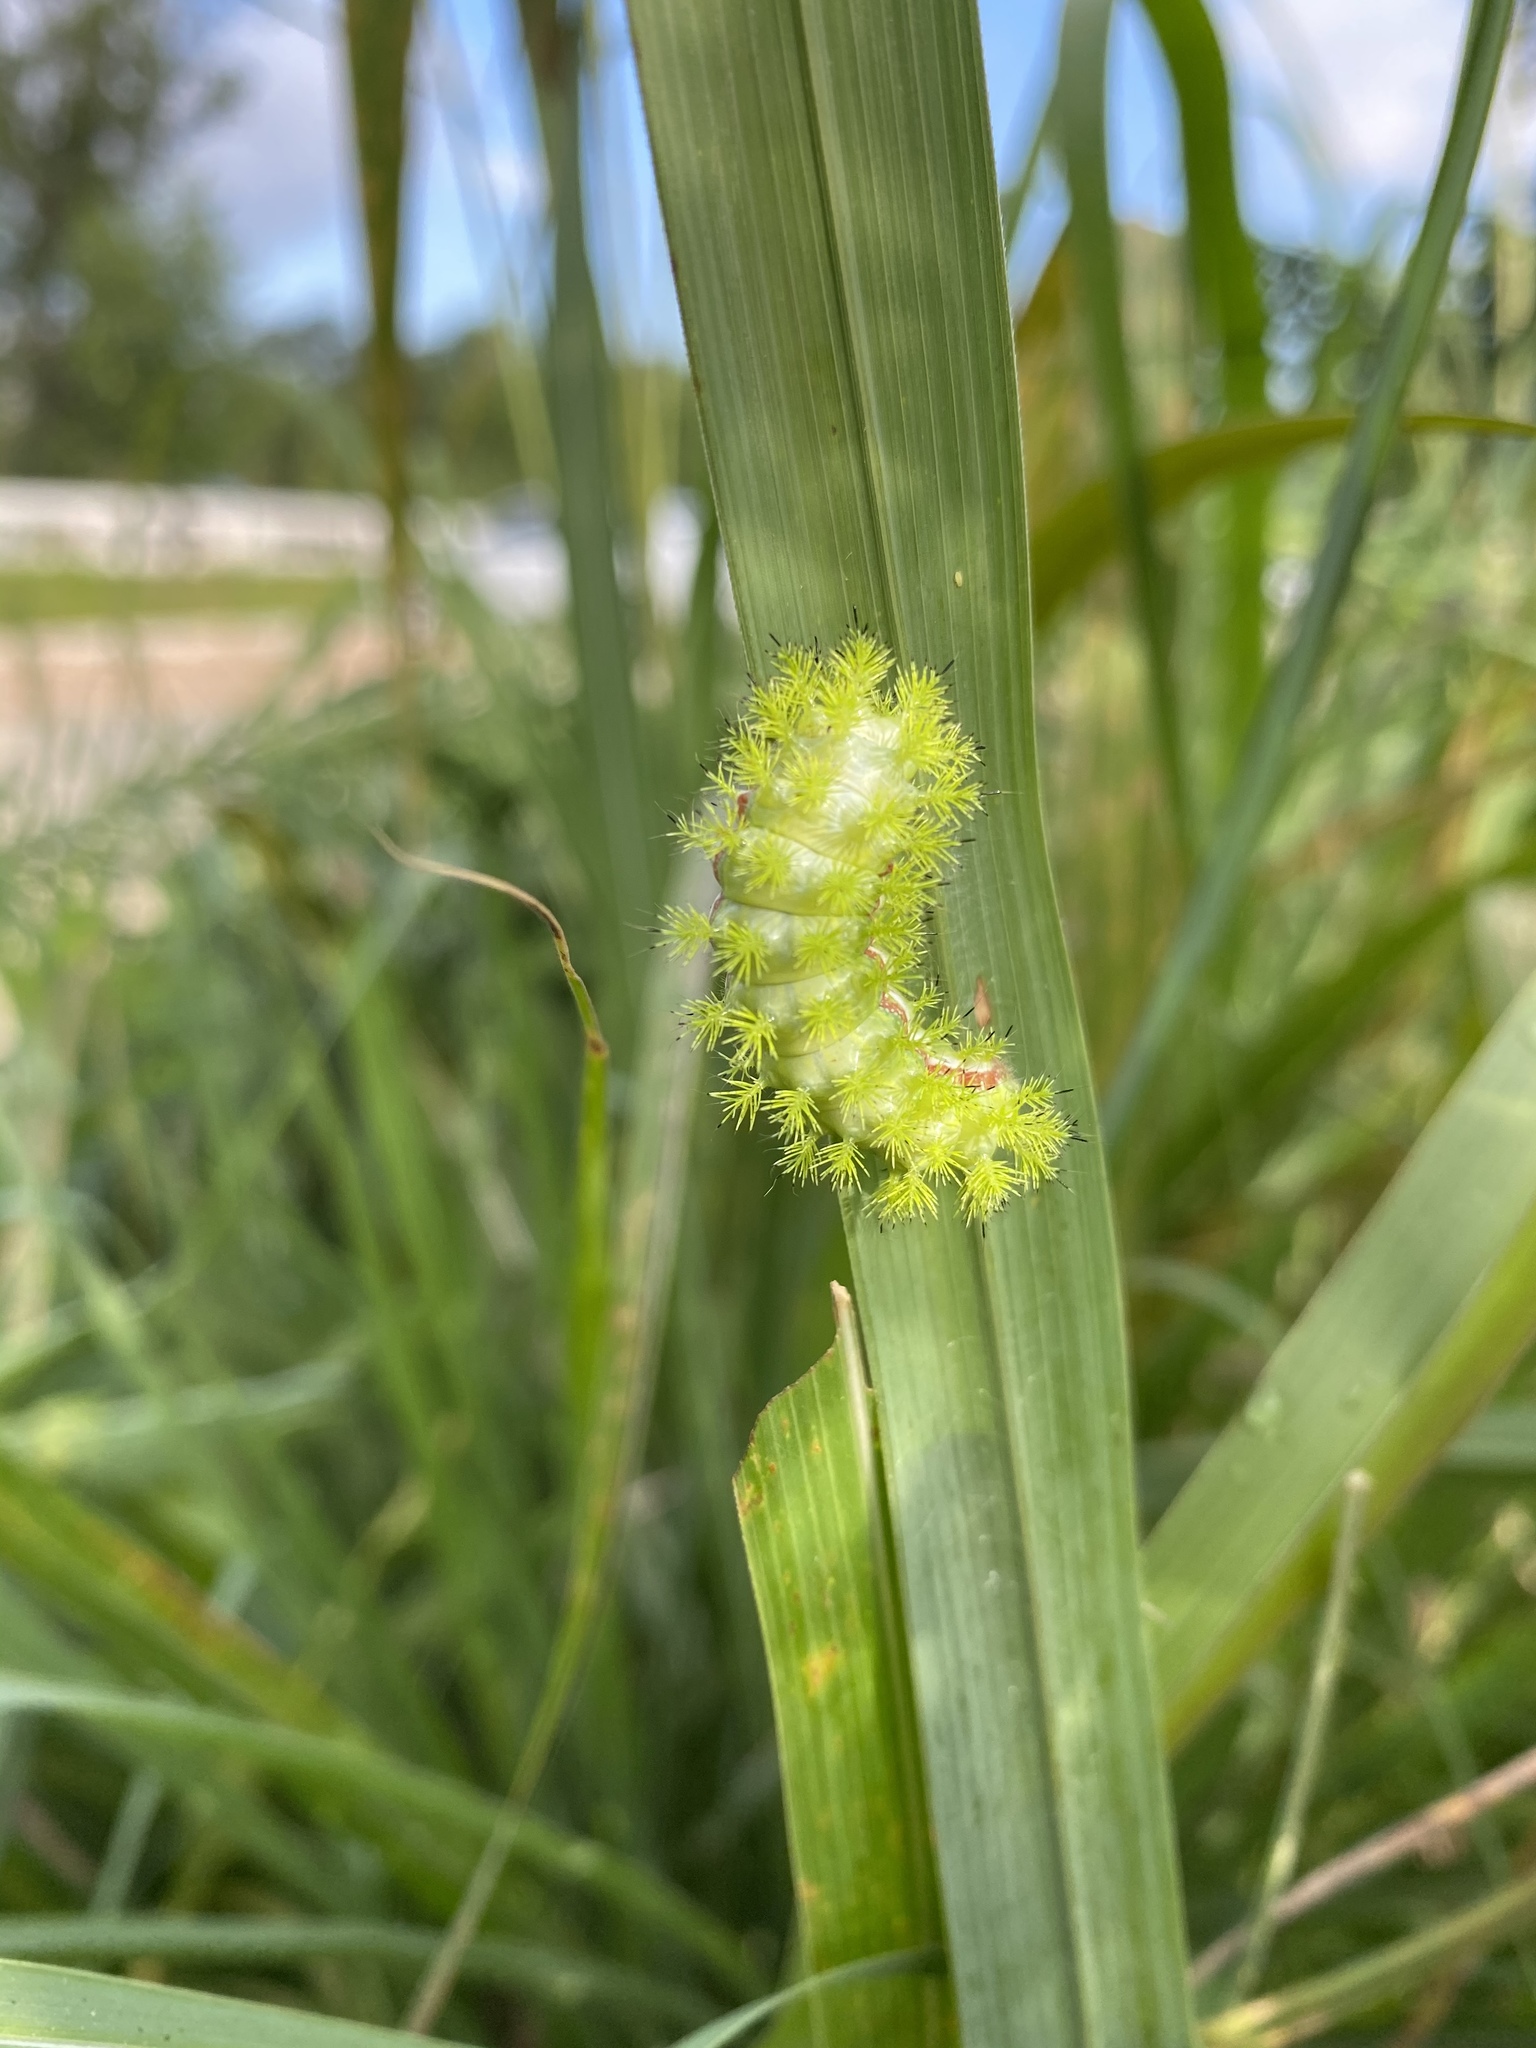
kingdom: Animalia
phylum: Arthropoda
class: Insecta
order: Lepidoptera
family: Saturniidae
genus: Automeris
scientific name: Automeris io
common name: Io moth
